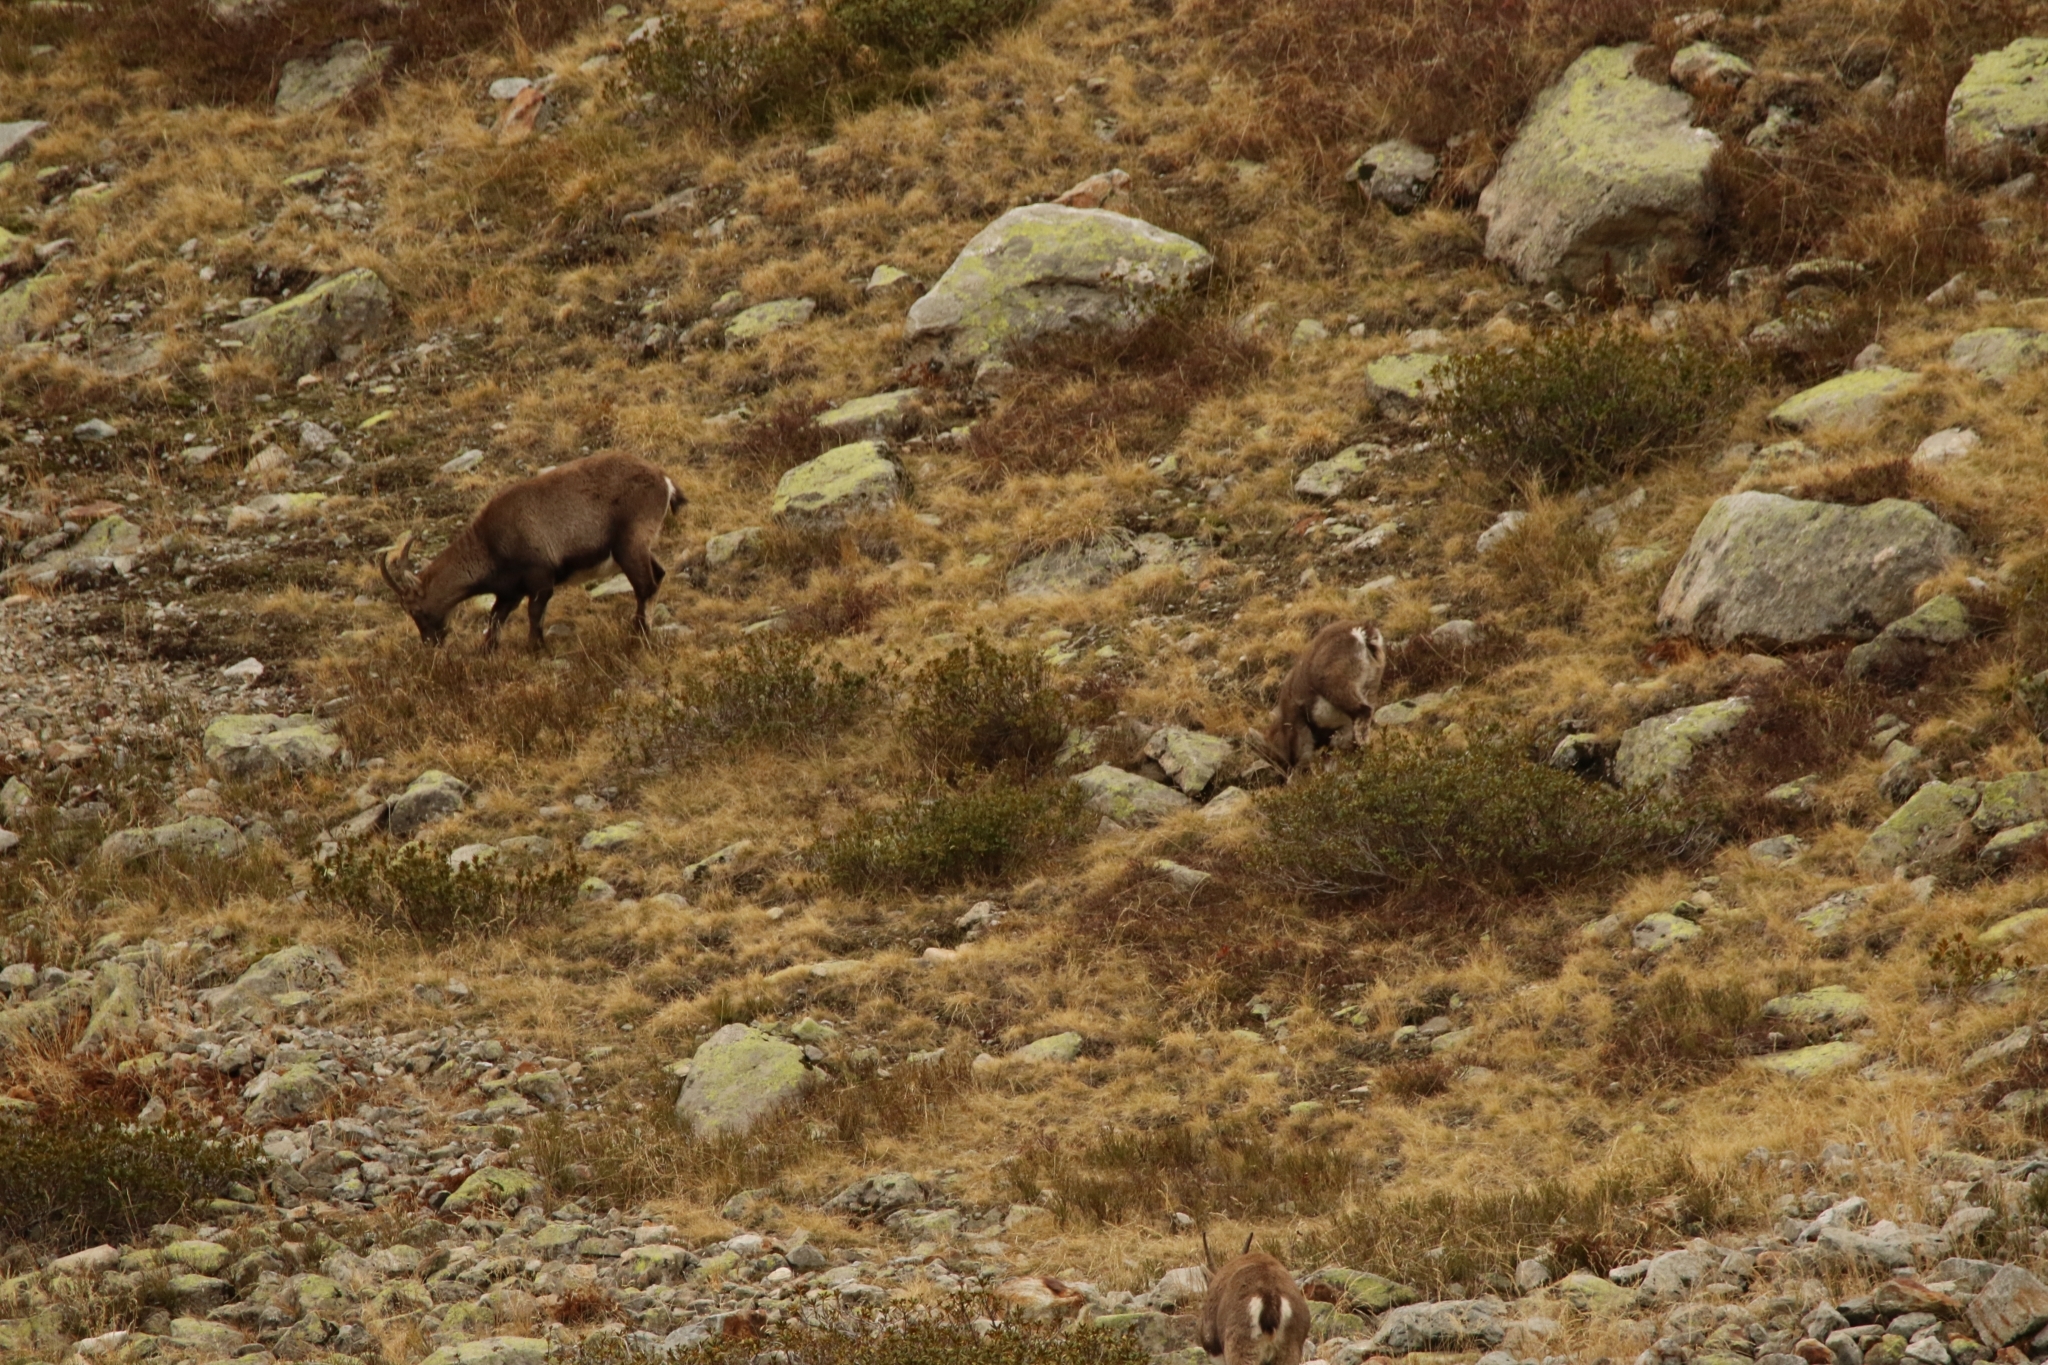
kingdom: Animalia
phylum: Chordata
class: Mammalia
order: Artiodactyla
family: Bovidae
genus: Capra
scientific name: Capra ibex
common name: Alpine ibex
